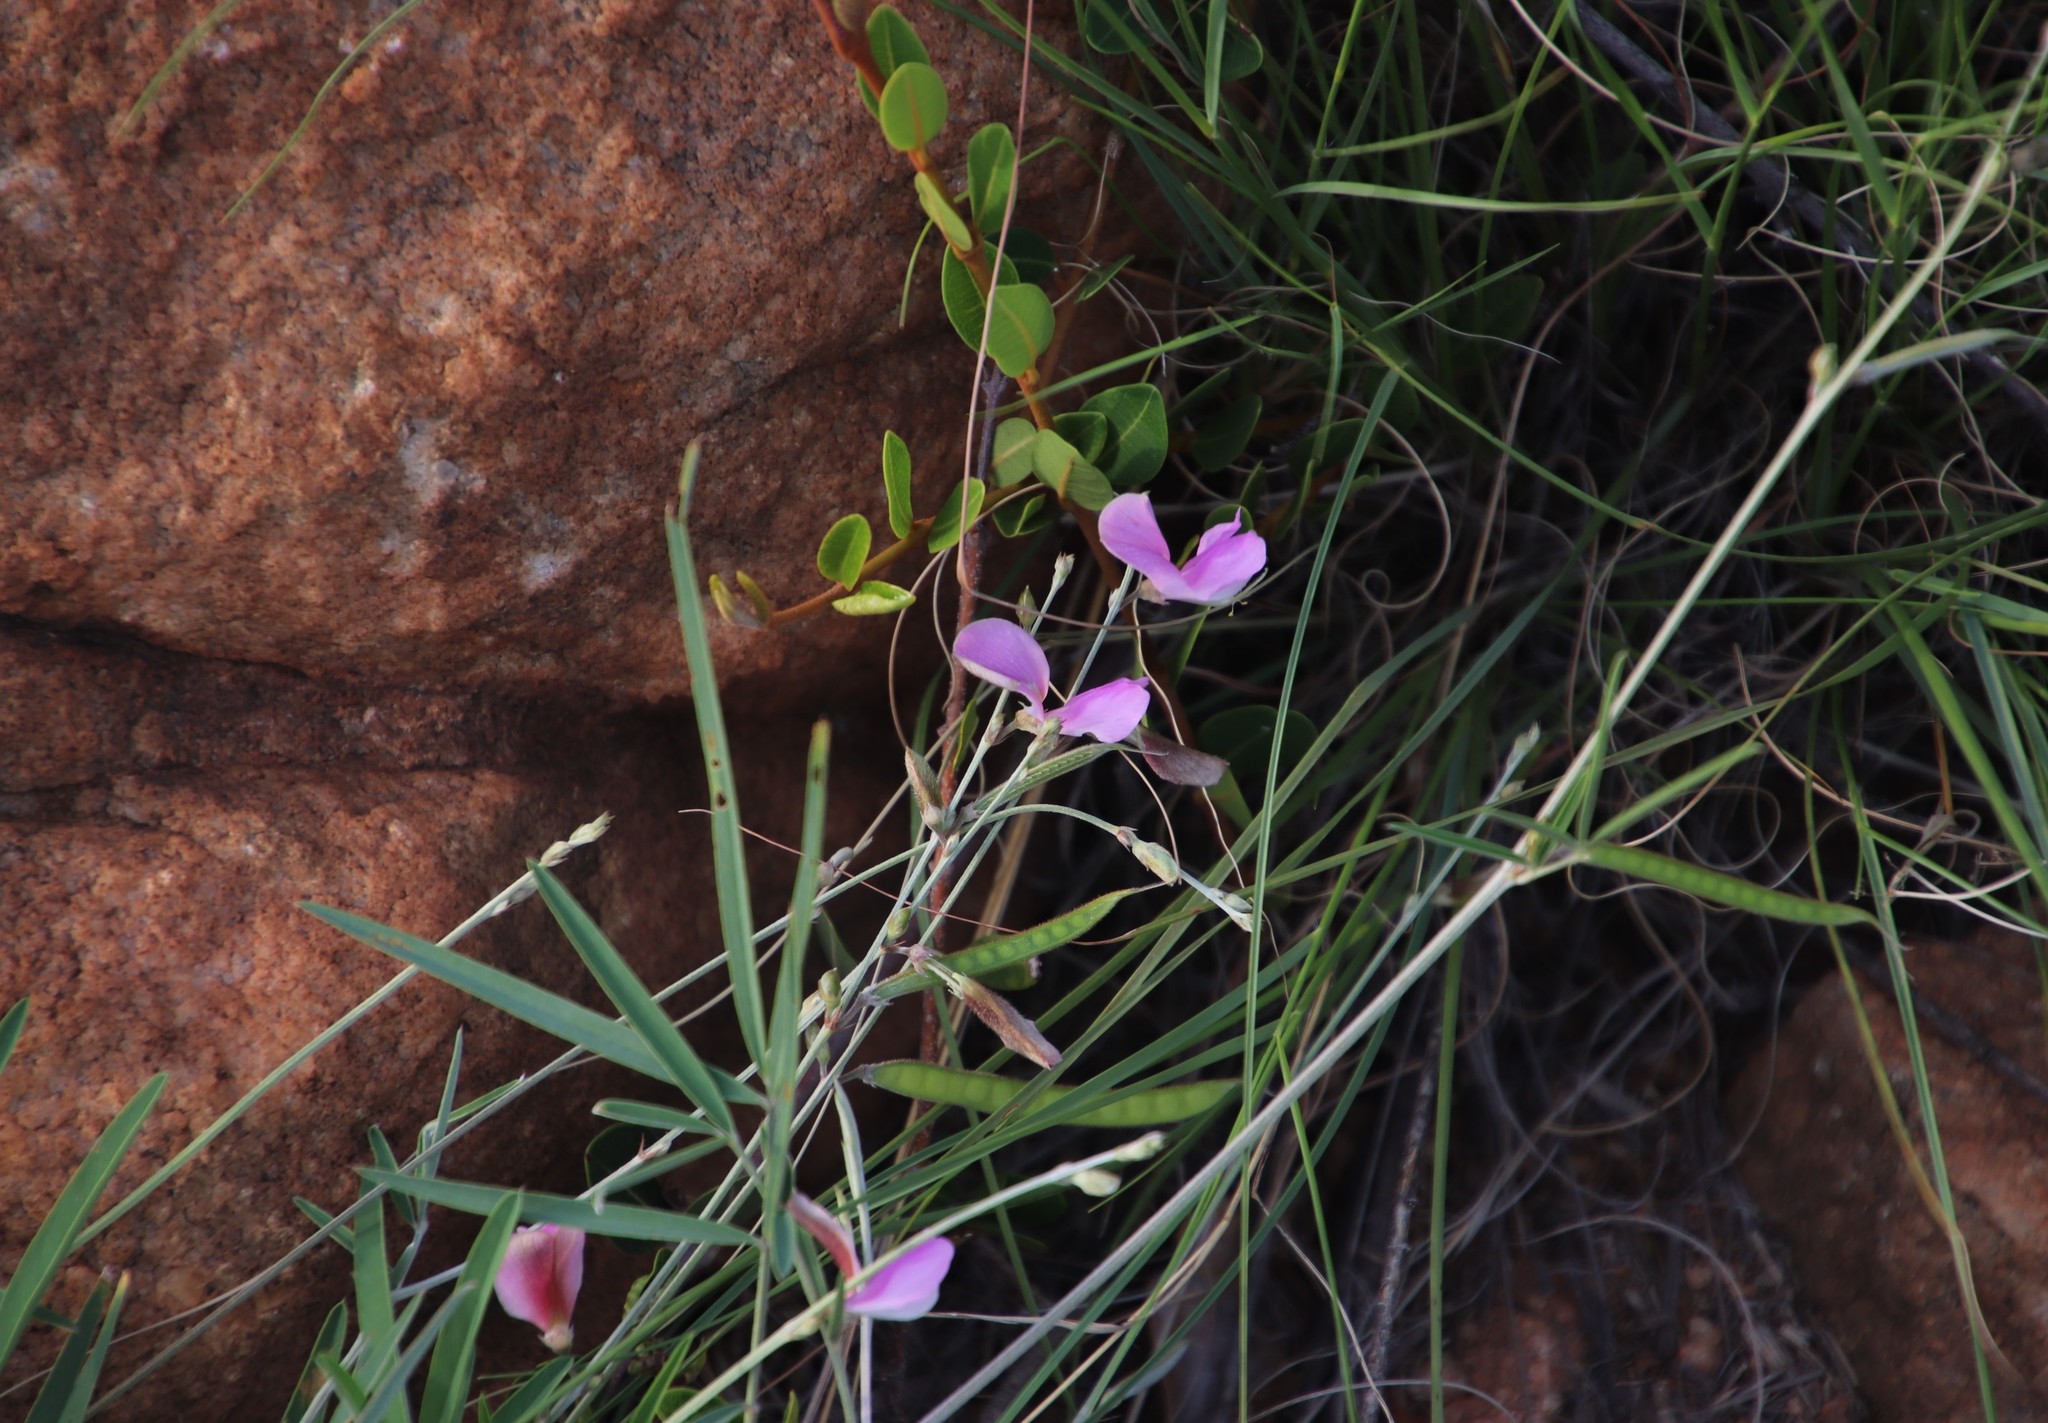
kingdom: Plantae
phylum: Tracheophyta
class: Magnoliopsida
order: Fabales
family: Fabaceae
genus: Tephrosia
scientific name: Tephrosia longipes
